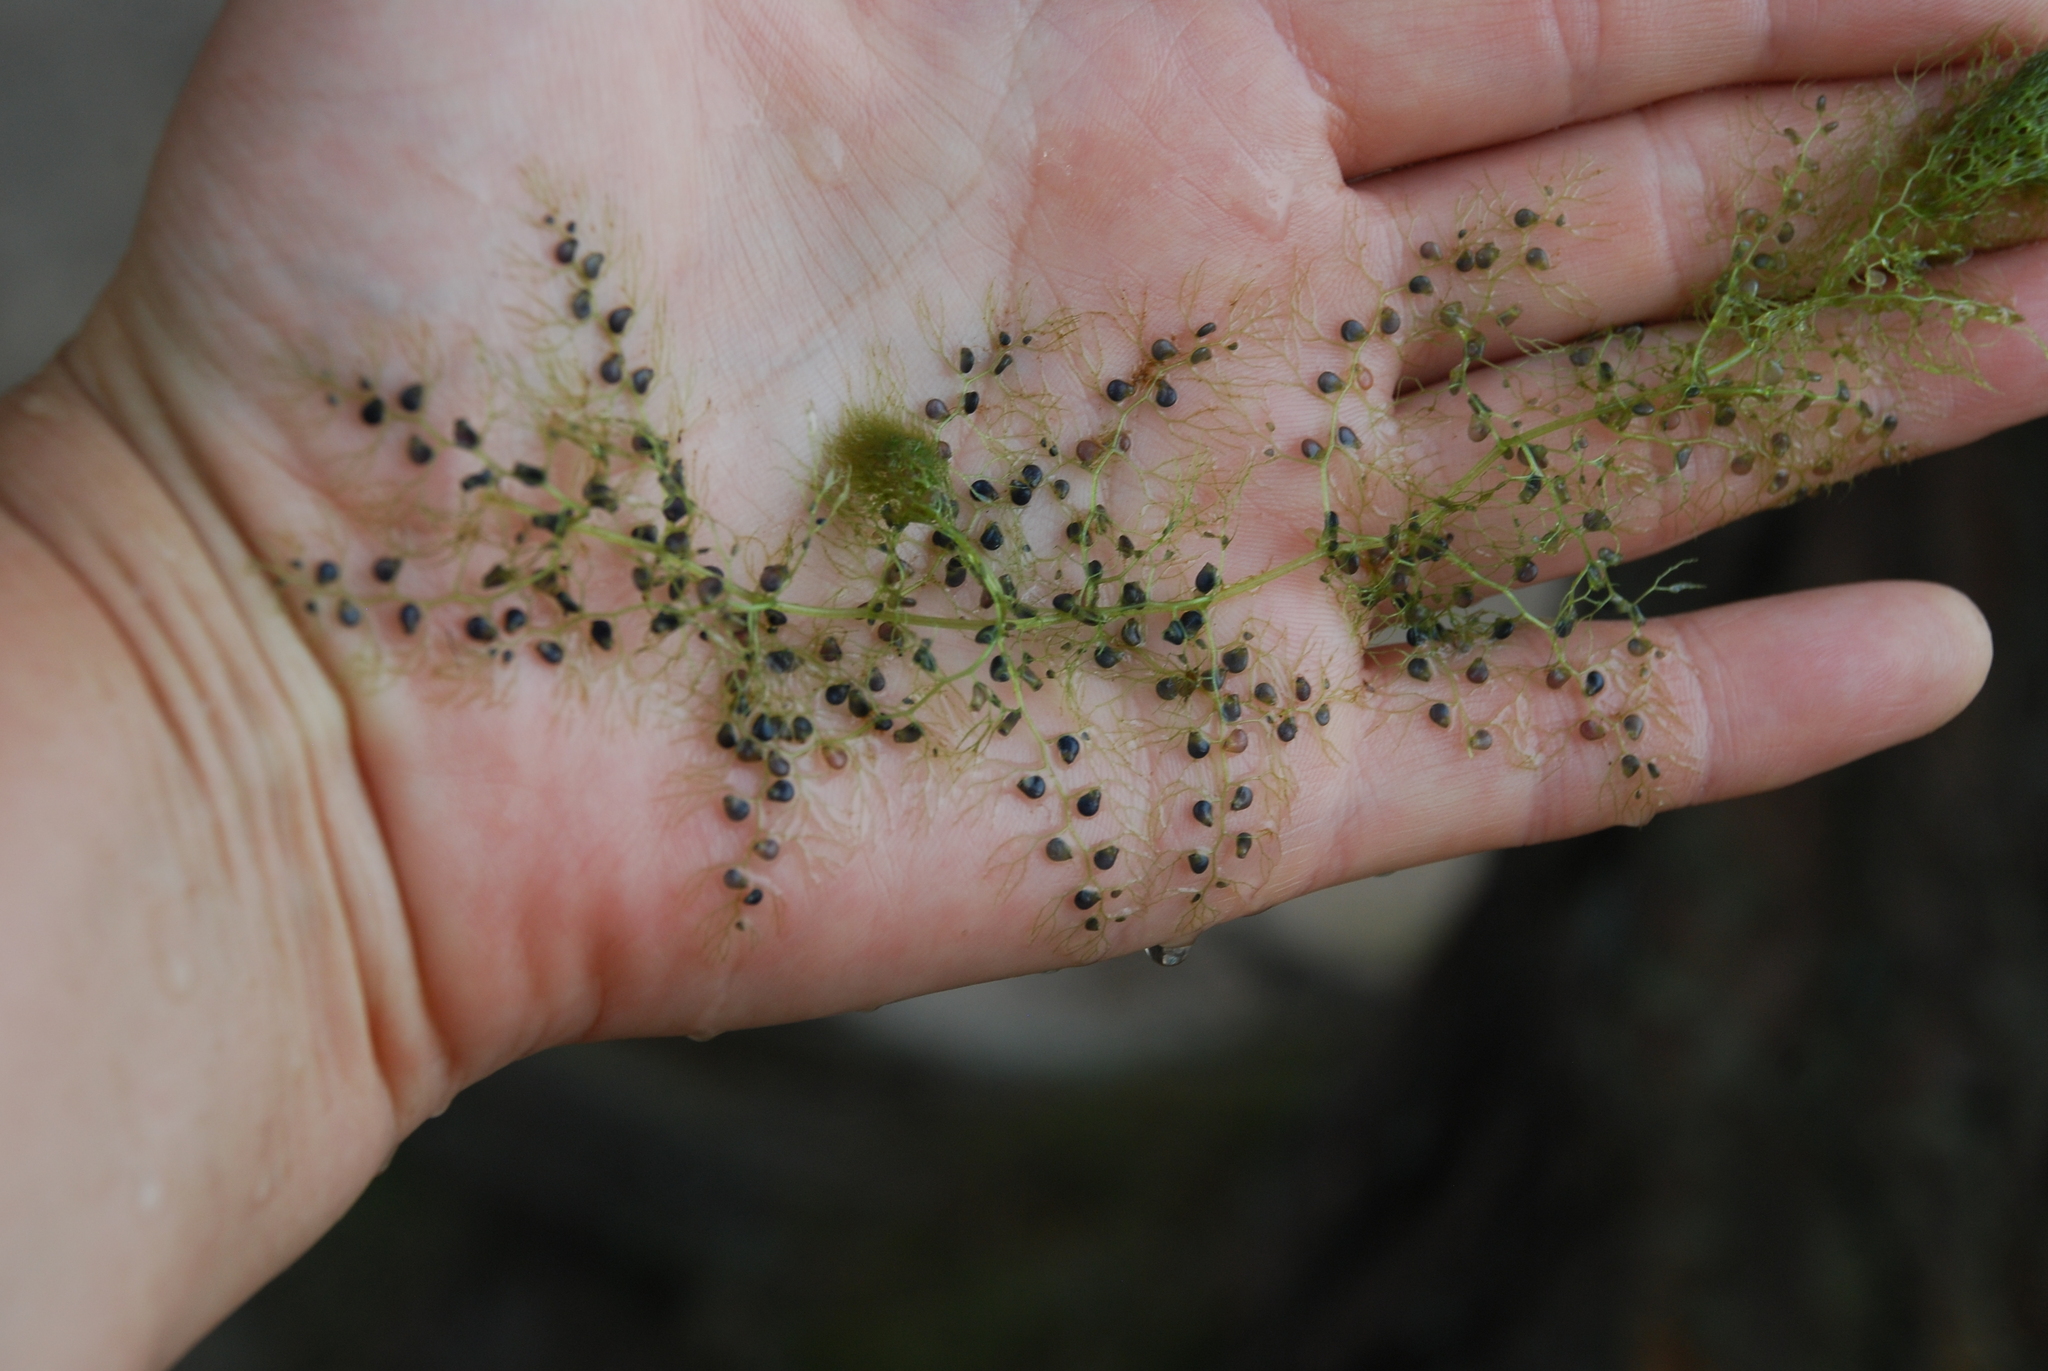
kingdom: Plantae
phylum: Tracheophyta
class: Magnoliopsida
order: Lamiales
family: Lentibulariaceae
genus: Utricularia
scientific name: Utricularia
